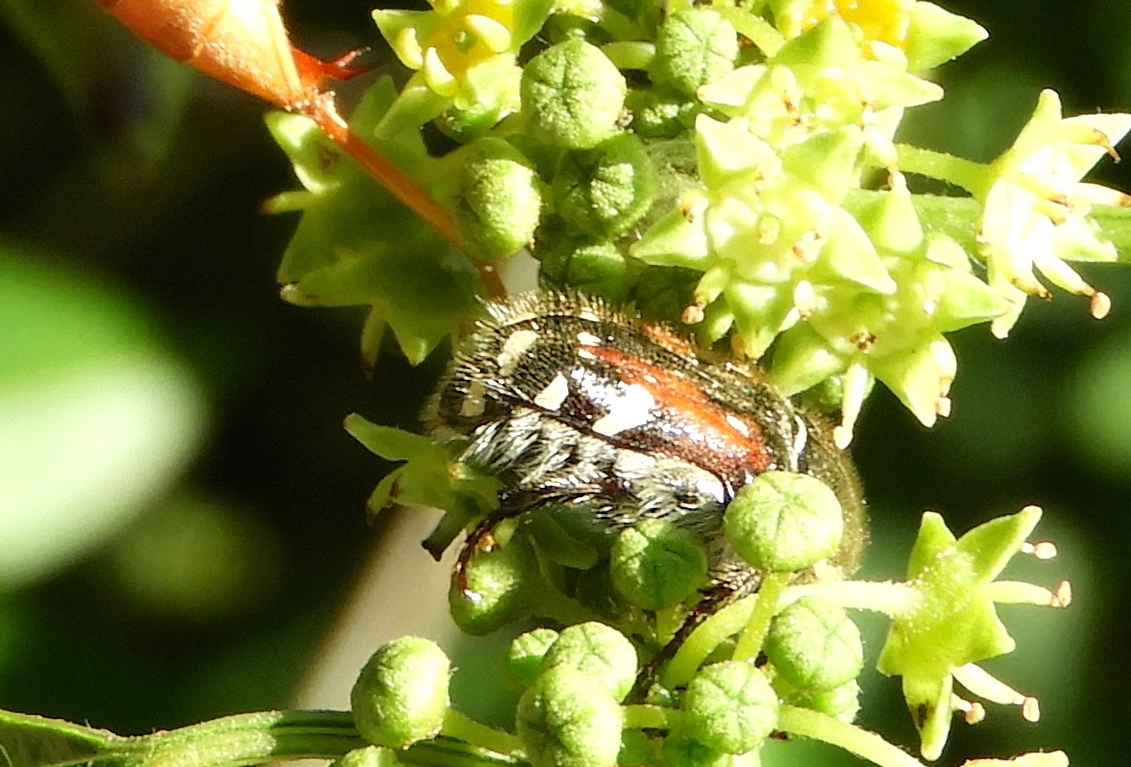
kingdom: Animalia
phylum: Arthropoda
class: Insecta
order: Coleoptera
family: Scarabaeidae
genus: Euphoria
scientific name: Euphoria pulchella
